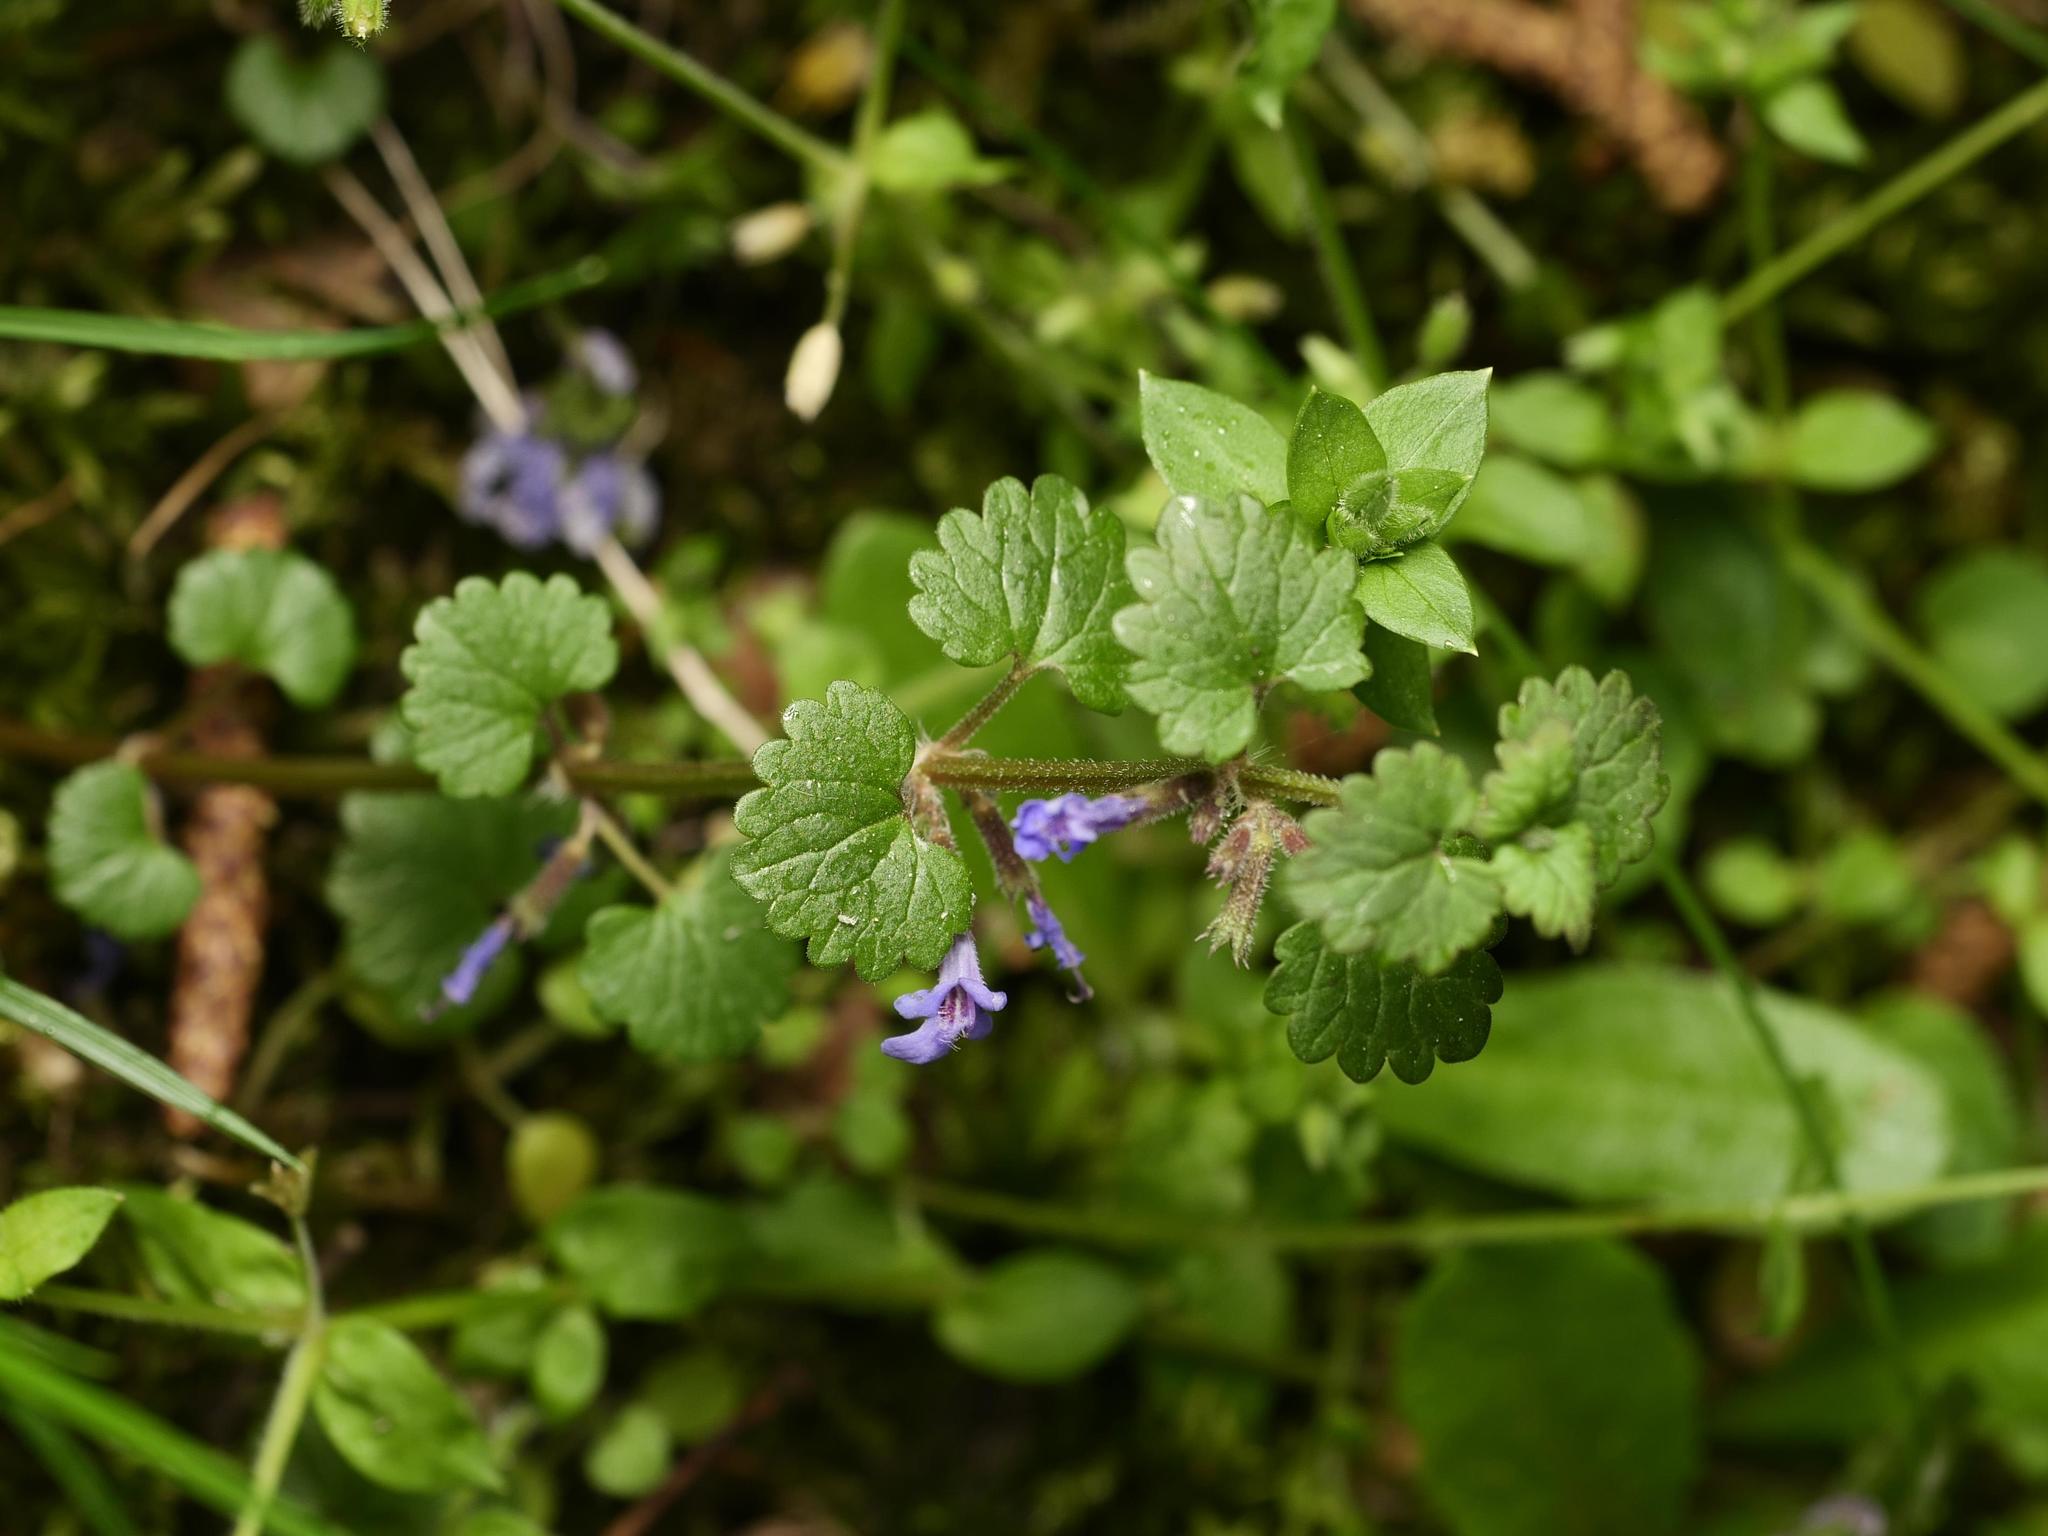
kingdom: Plantae
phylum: Tracheophyta
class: Magnoliopsida
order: Lamiales
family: Lamiaceae
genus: Glechoma
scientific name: Glechoma hederacea
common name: Ground ivy
